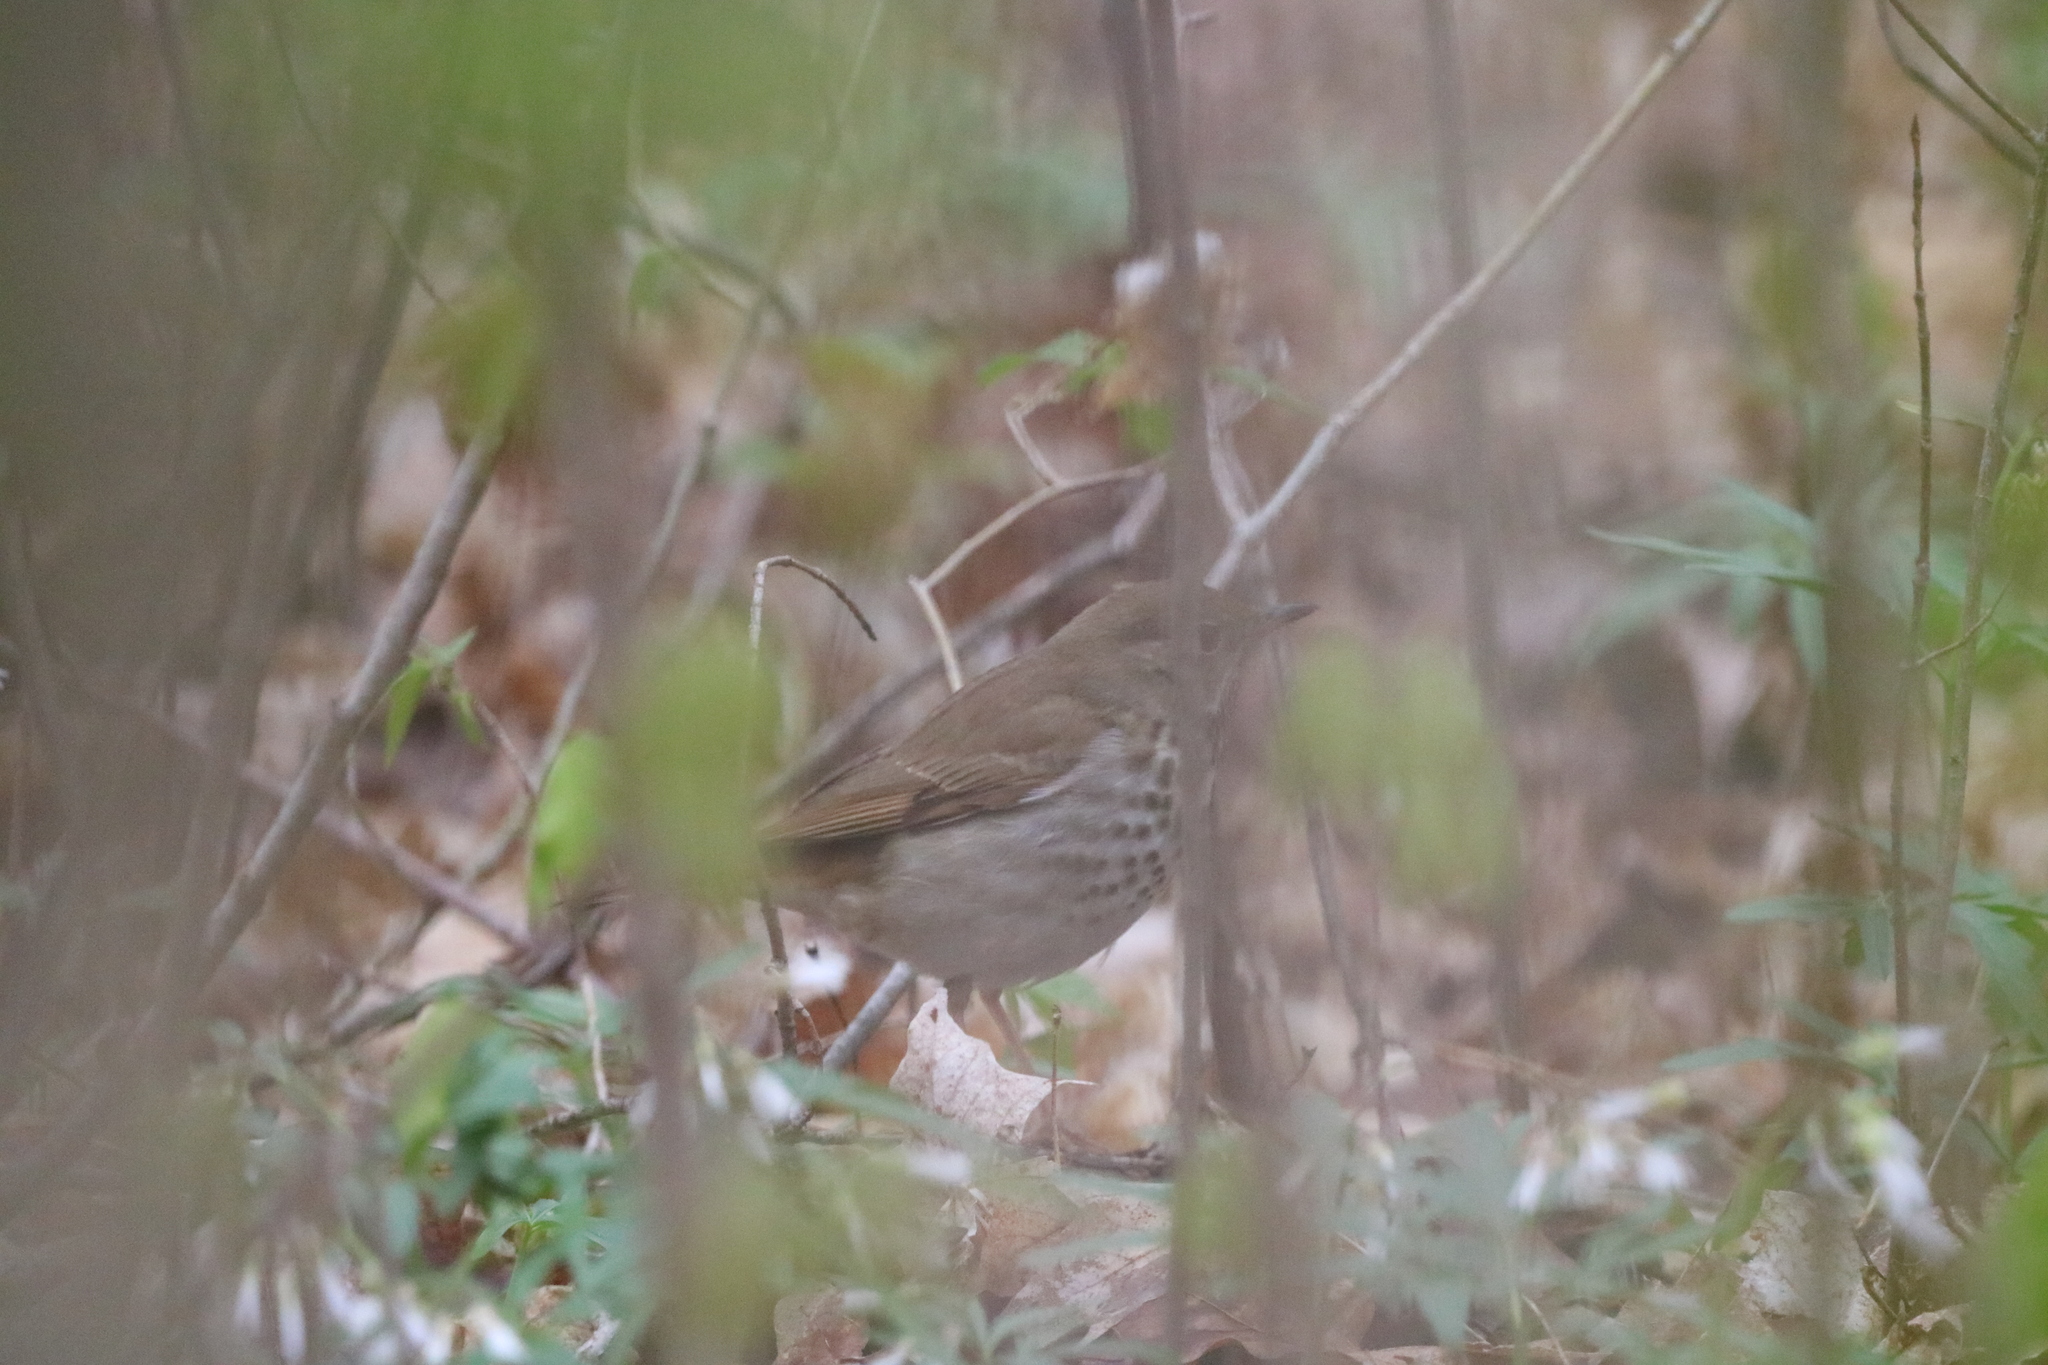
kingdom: Animalia
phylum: Chordata
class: Aves
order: Passeriformes
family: Turdidae
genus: Catharus
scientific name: Catharus guttatus
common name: Hermit thrush
